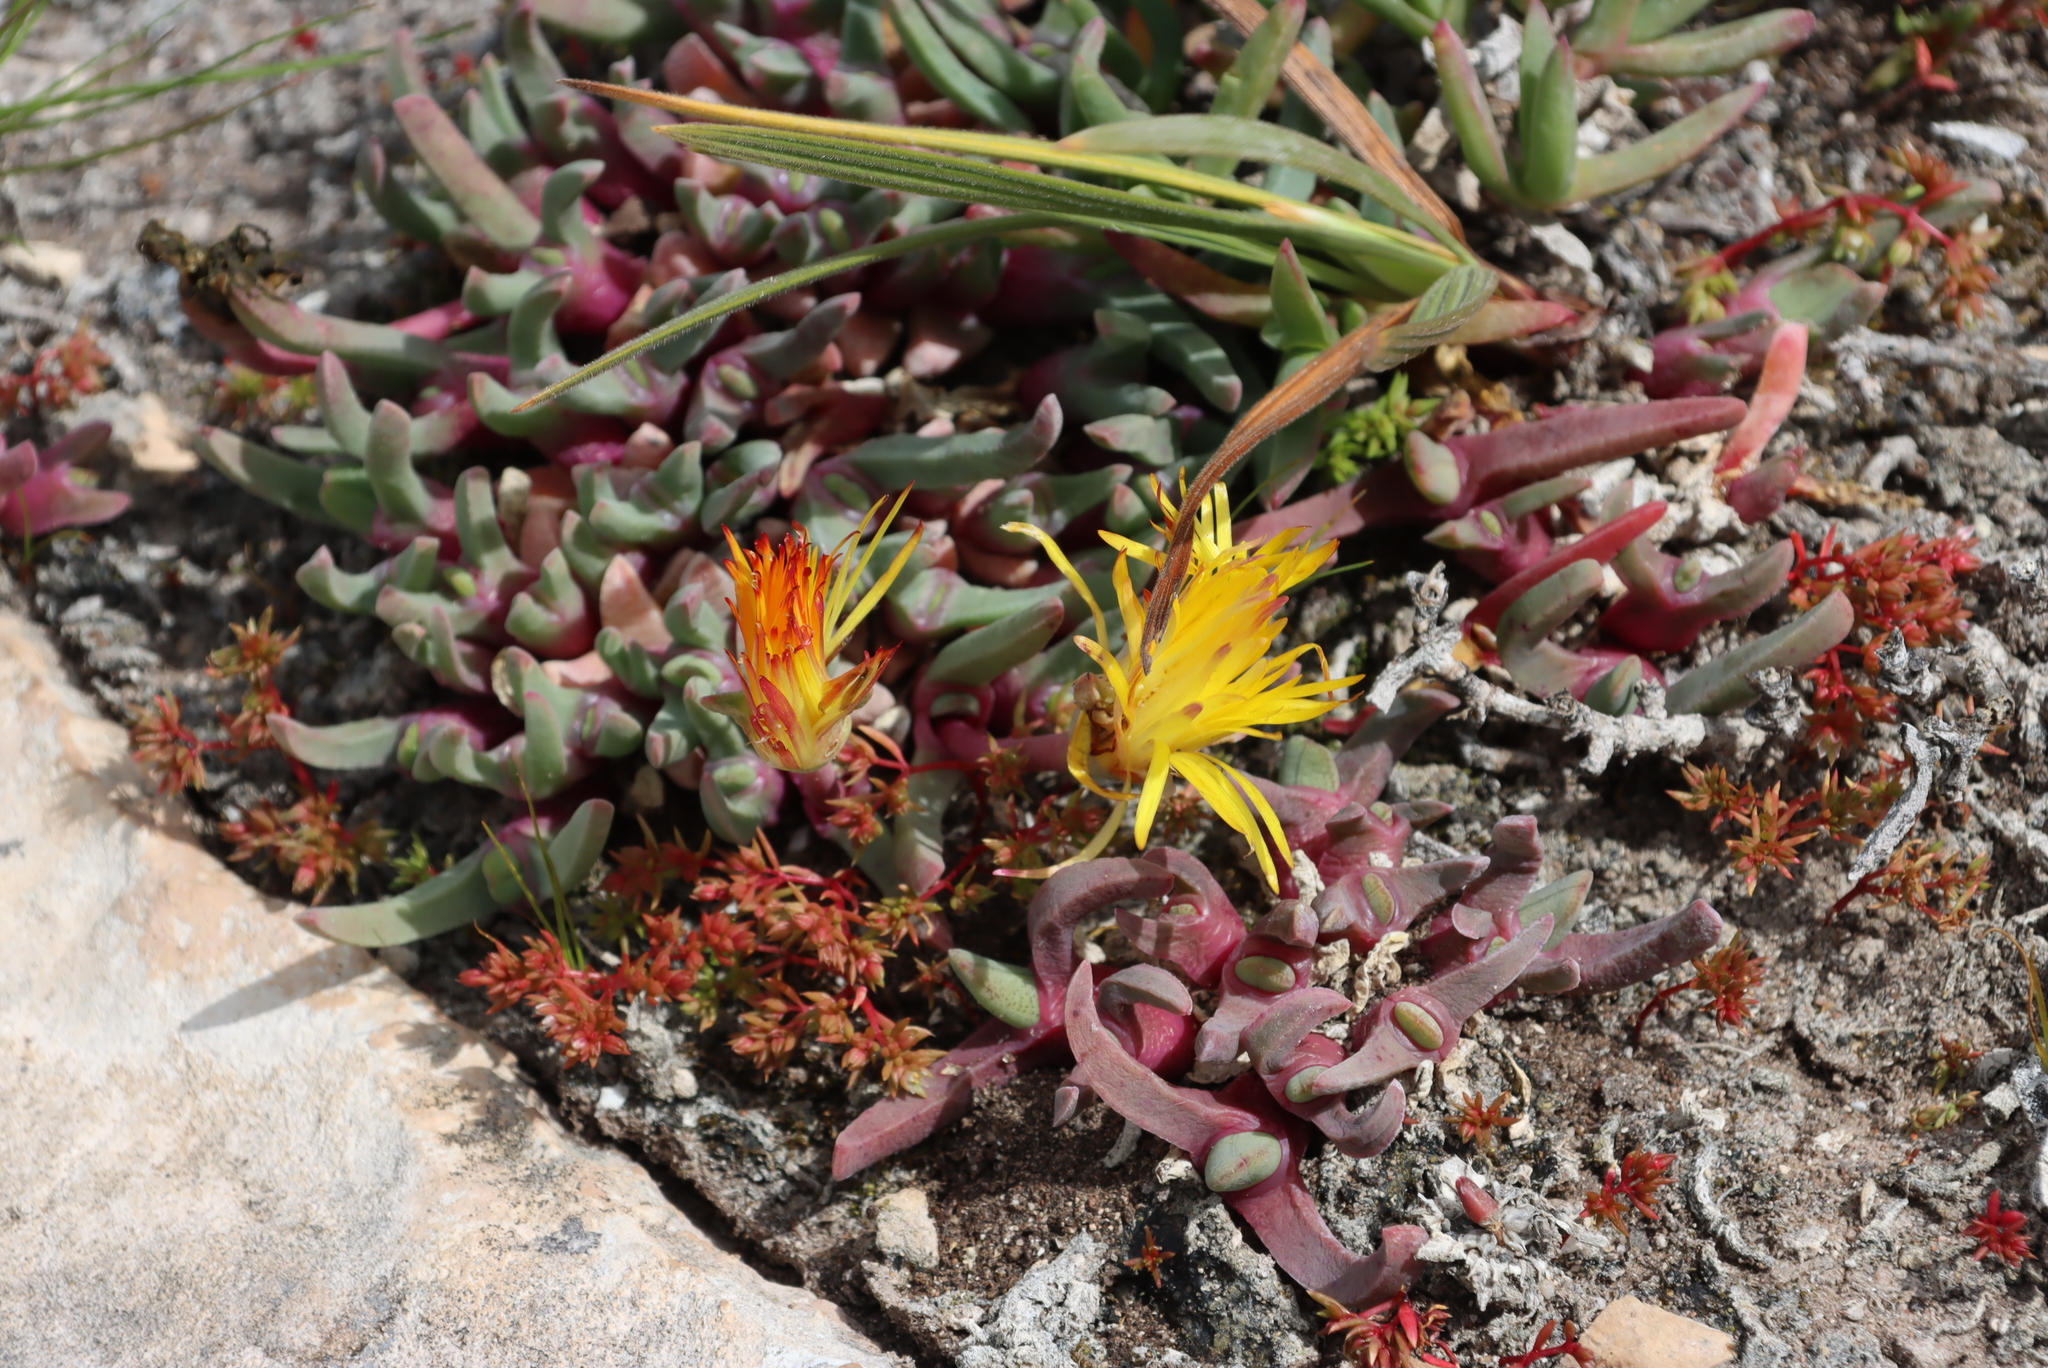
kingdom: Plantae
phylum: Tracheophyta
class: Magnoliopsida
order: Caryophyllales
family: Aizoaceae
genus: Cheiridopsis
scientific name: Cheiridopsis rostrata
